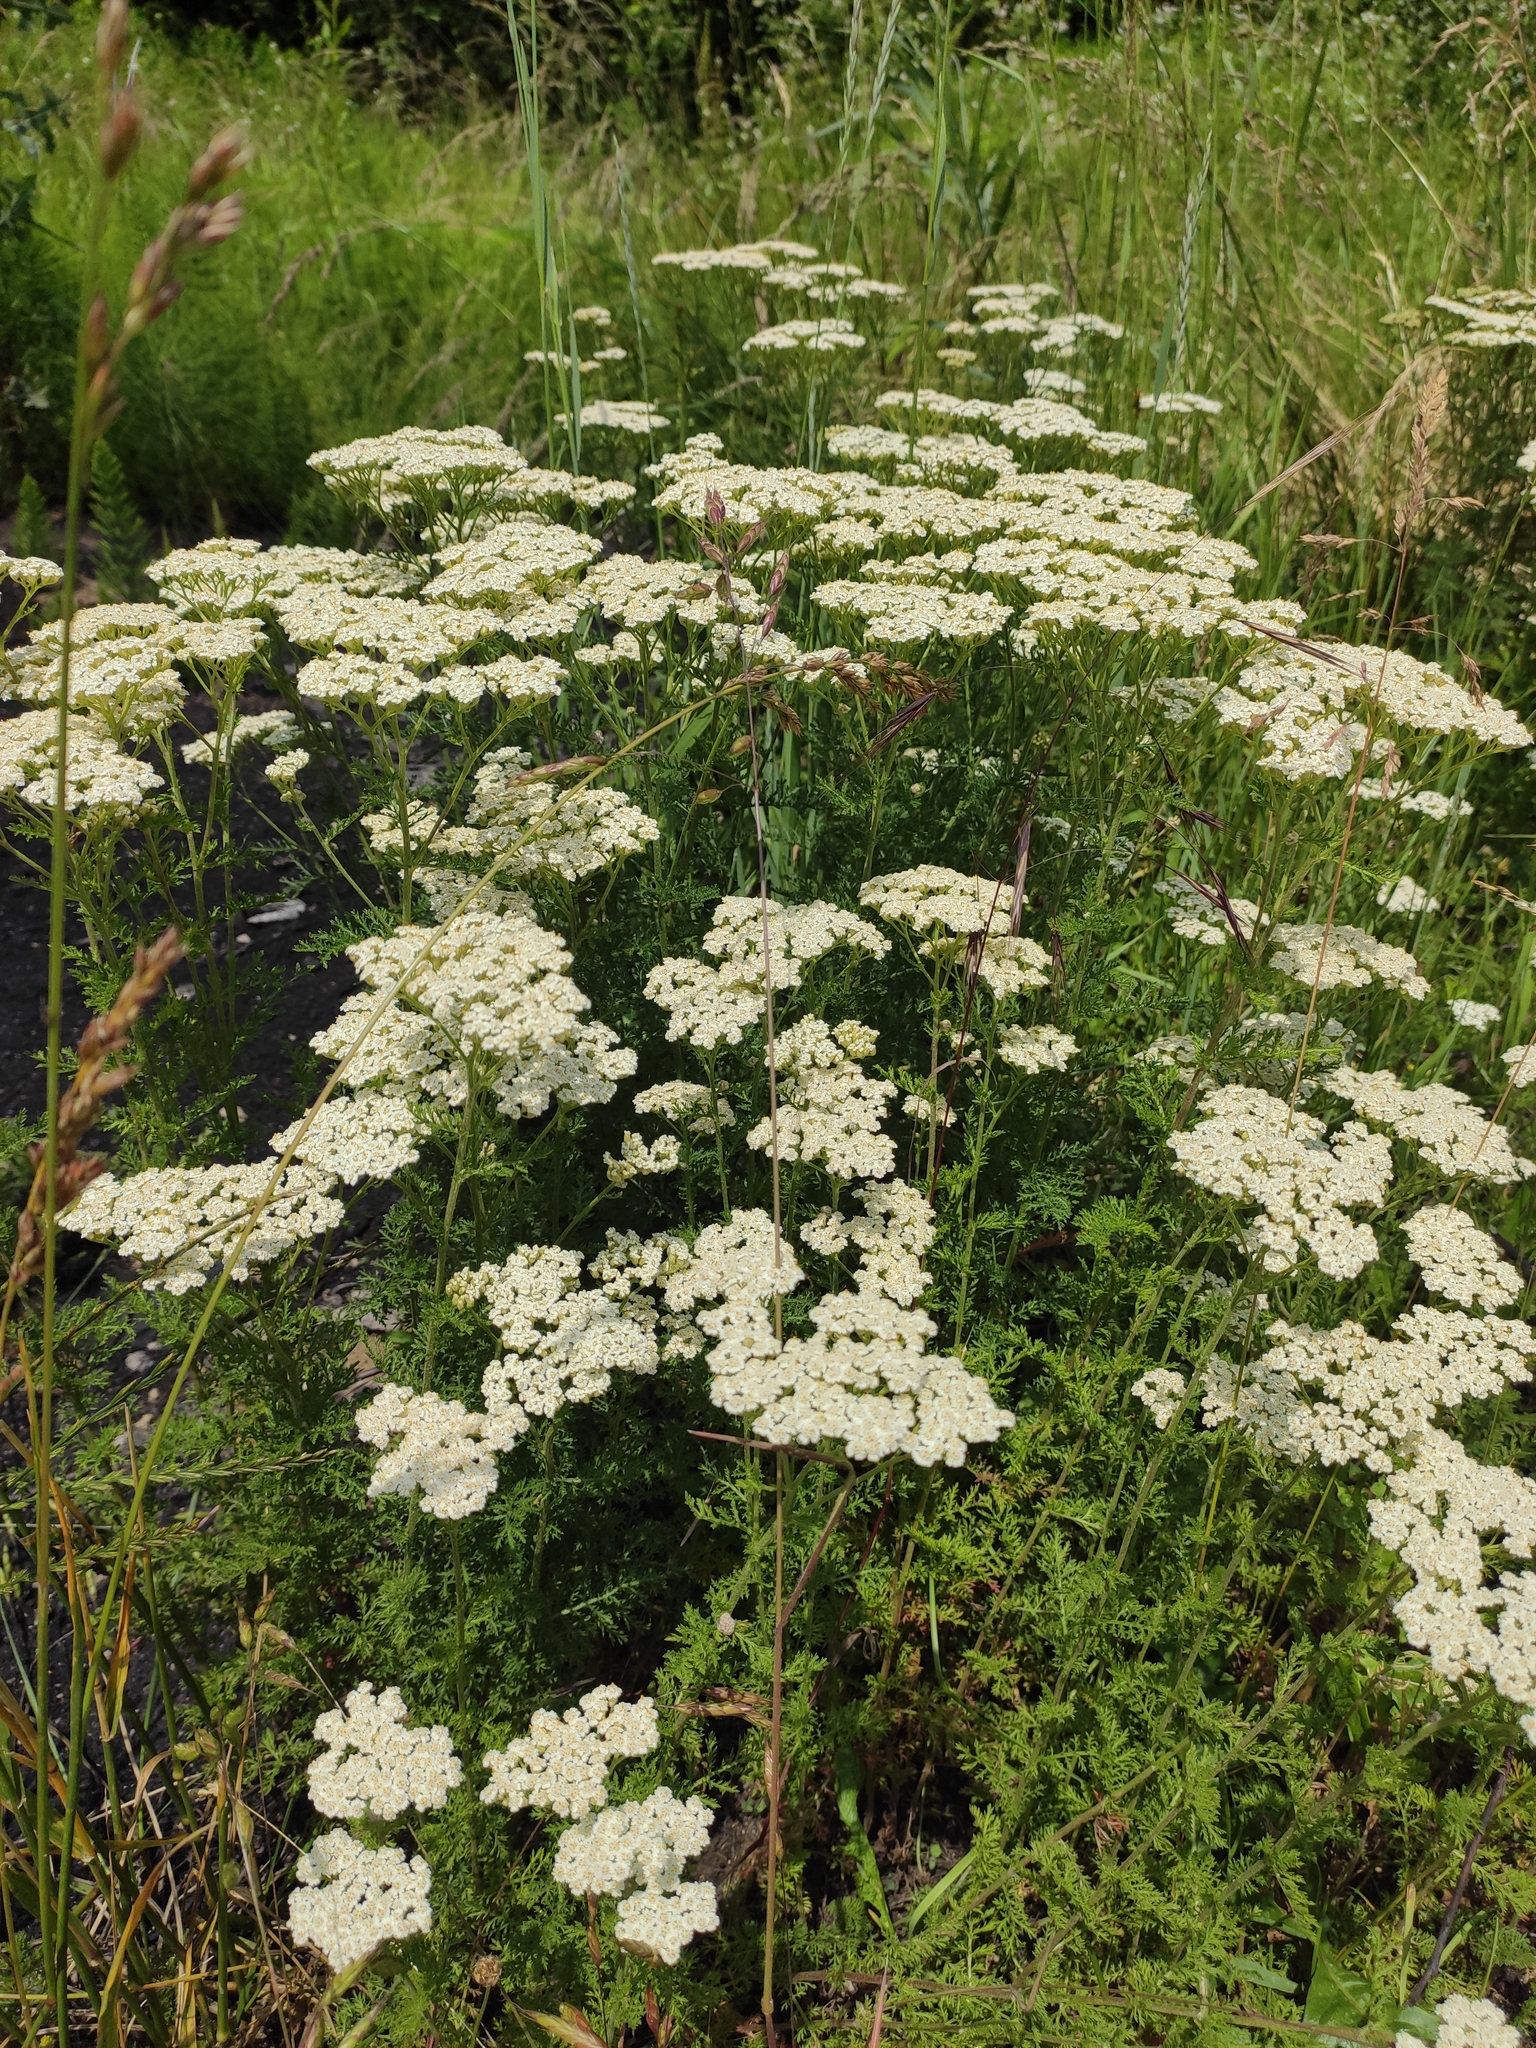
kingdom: Plantae
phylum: Tracheophyta
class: Magnoliopsida
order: Asterales
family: Asteraceae
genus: Achillea
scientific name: Achillea nobilis
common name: Noble yarrow
